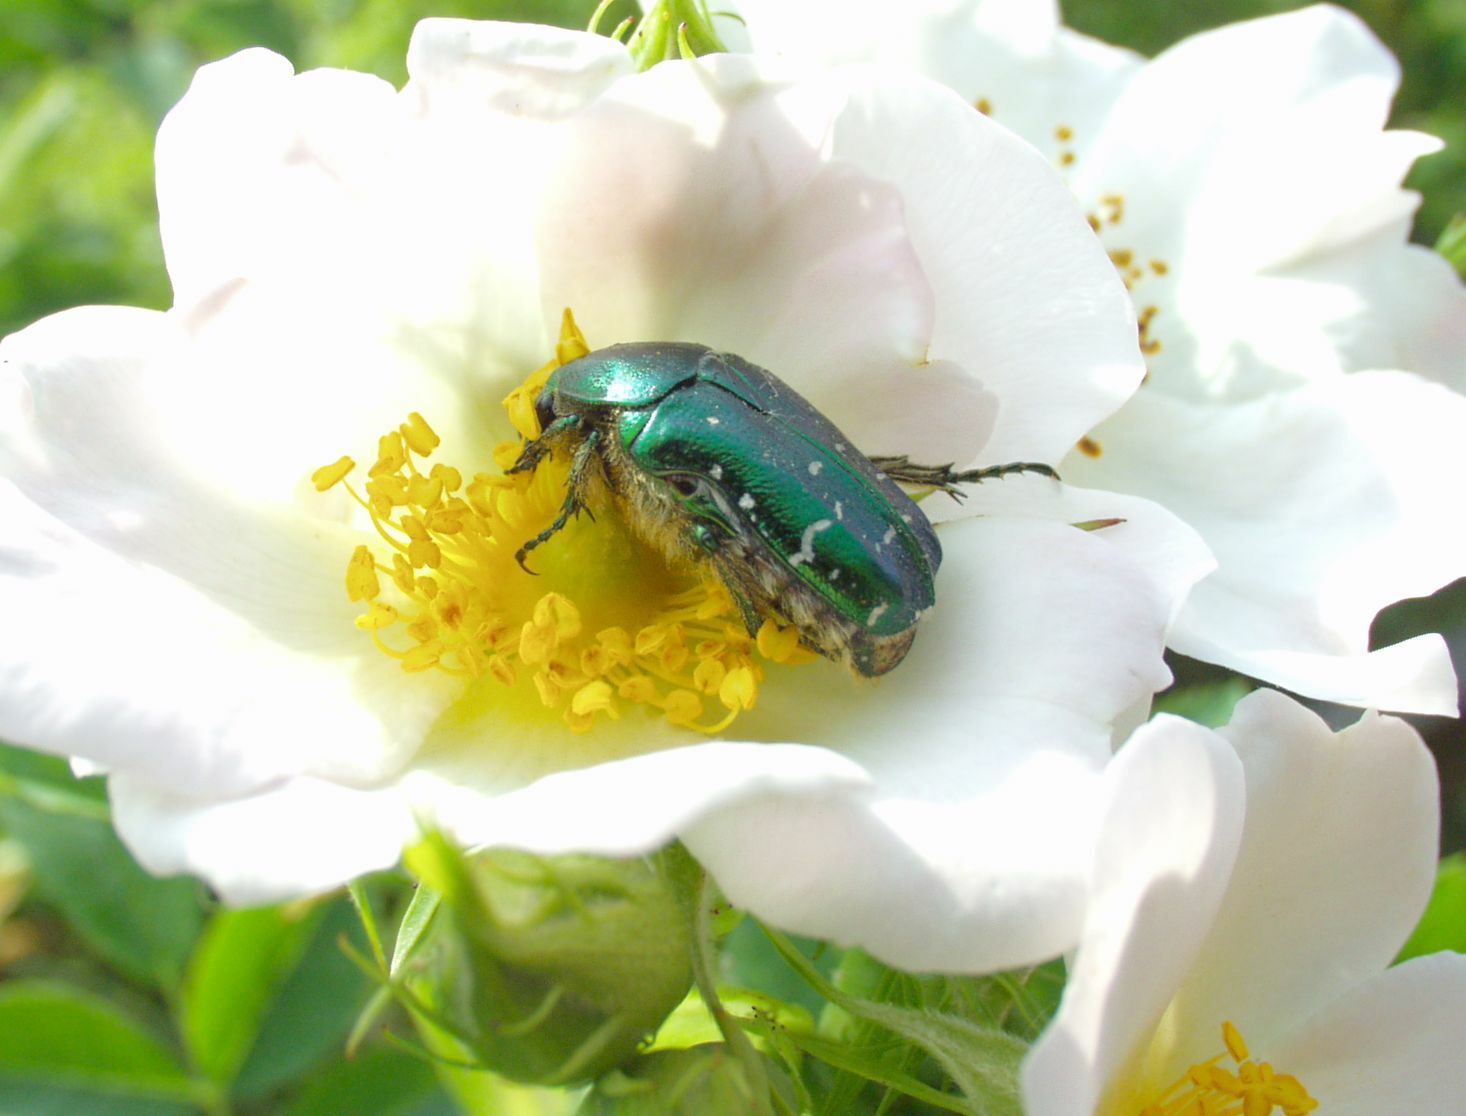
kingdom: Animalia
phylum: Arthropoda
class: Insecta
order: Coleoptera
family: Scarabaeidae
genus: Cetonia
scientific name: Cetonia aurata
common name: Rose chafer
